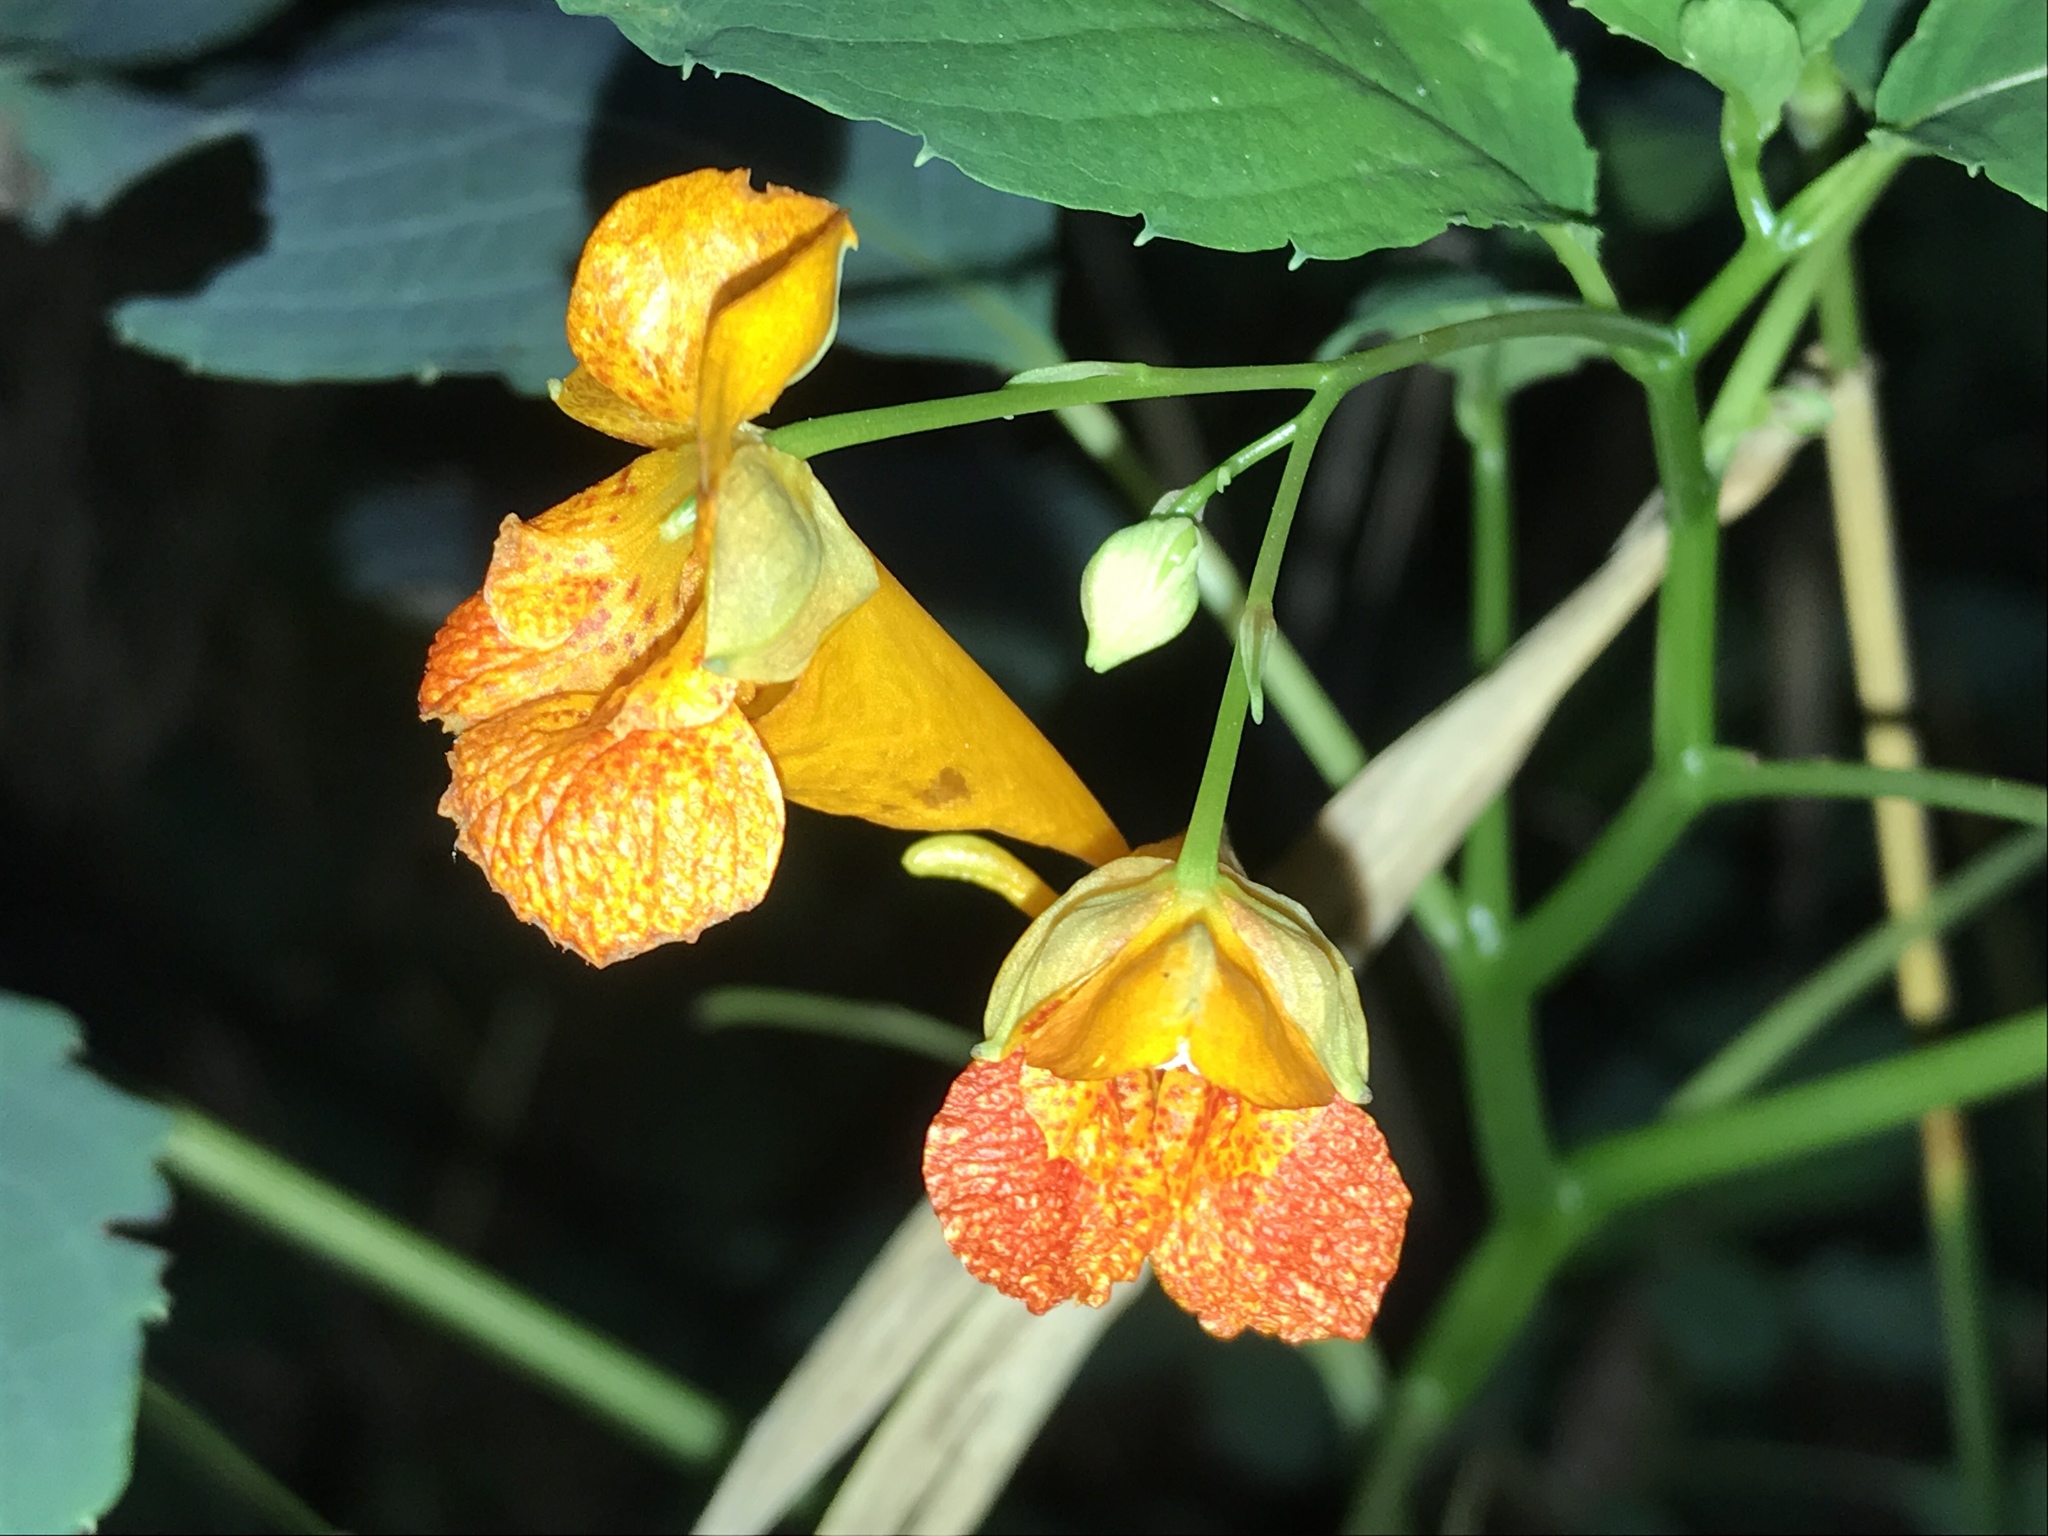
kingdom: Plantae
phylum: Tracheophyta
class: Magnoliopsida
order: Ericales
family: Balsaminaceae
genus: Impatiens
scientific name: Impatiens capensis
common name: Orange balsam
